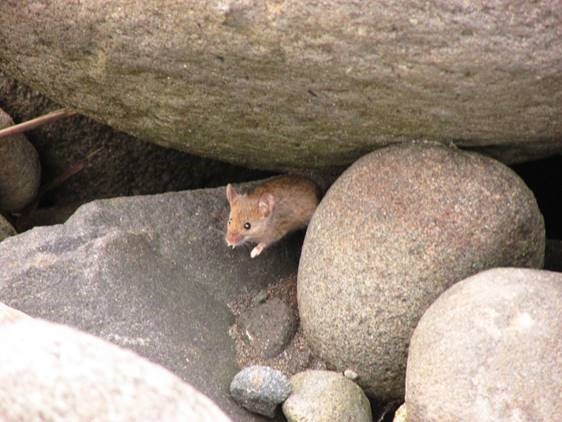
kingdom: Animalia
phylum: Chordata
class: Mammalia
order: Rodentia
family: Muridae
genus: Mus
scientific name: Mus musculus
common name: House mouse
